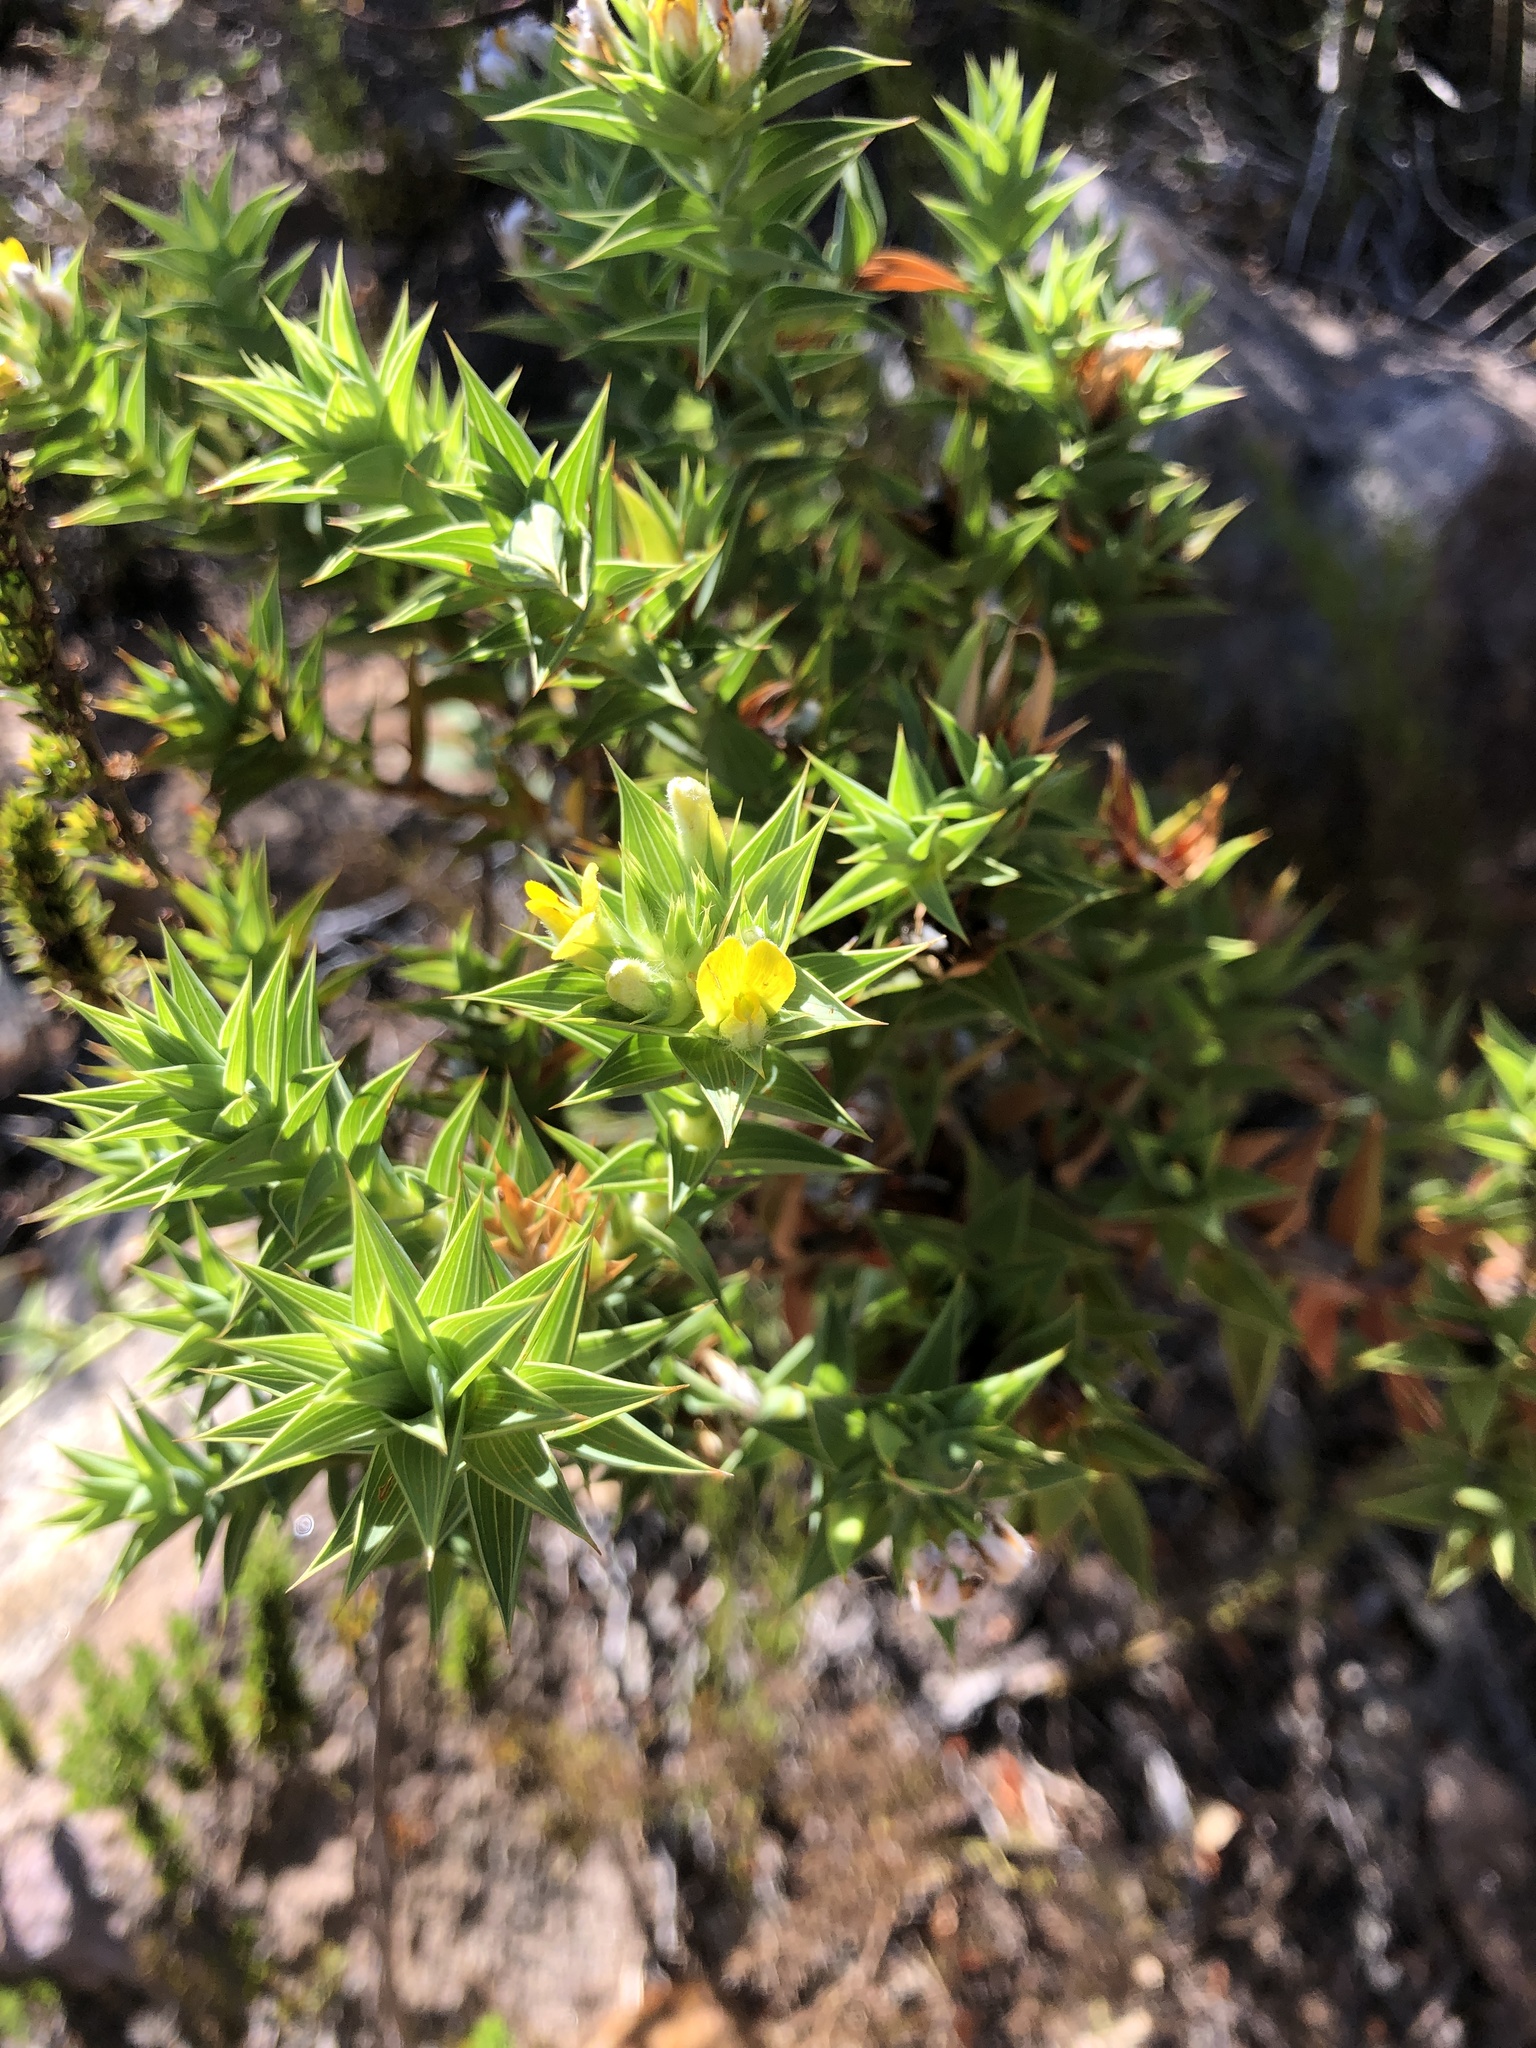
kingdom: Plantae
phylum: Tracheophyta
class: Magnoliopsida
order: Fabales
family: Fabaceae
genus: Aspalathus
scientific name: Aspalathus cordata
